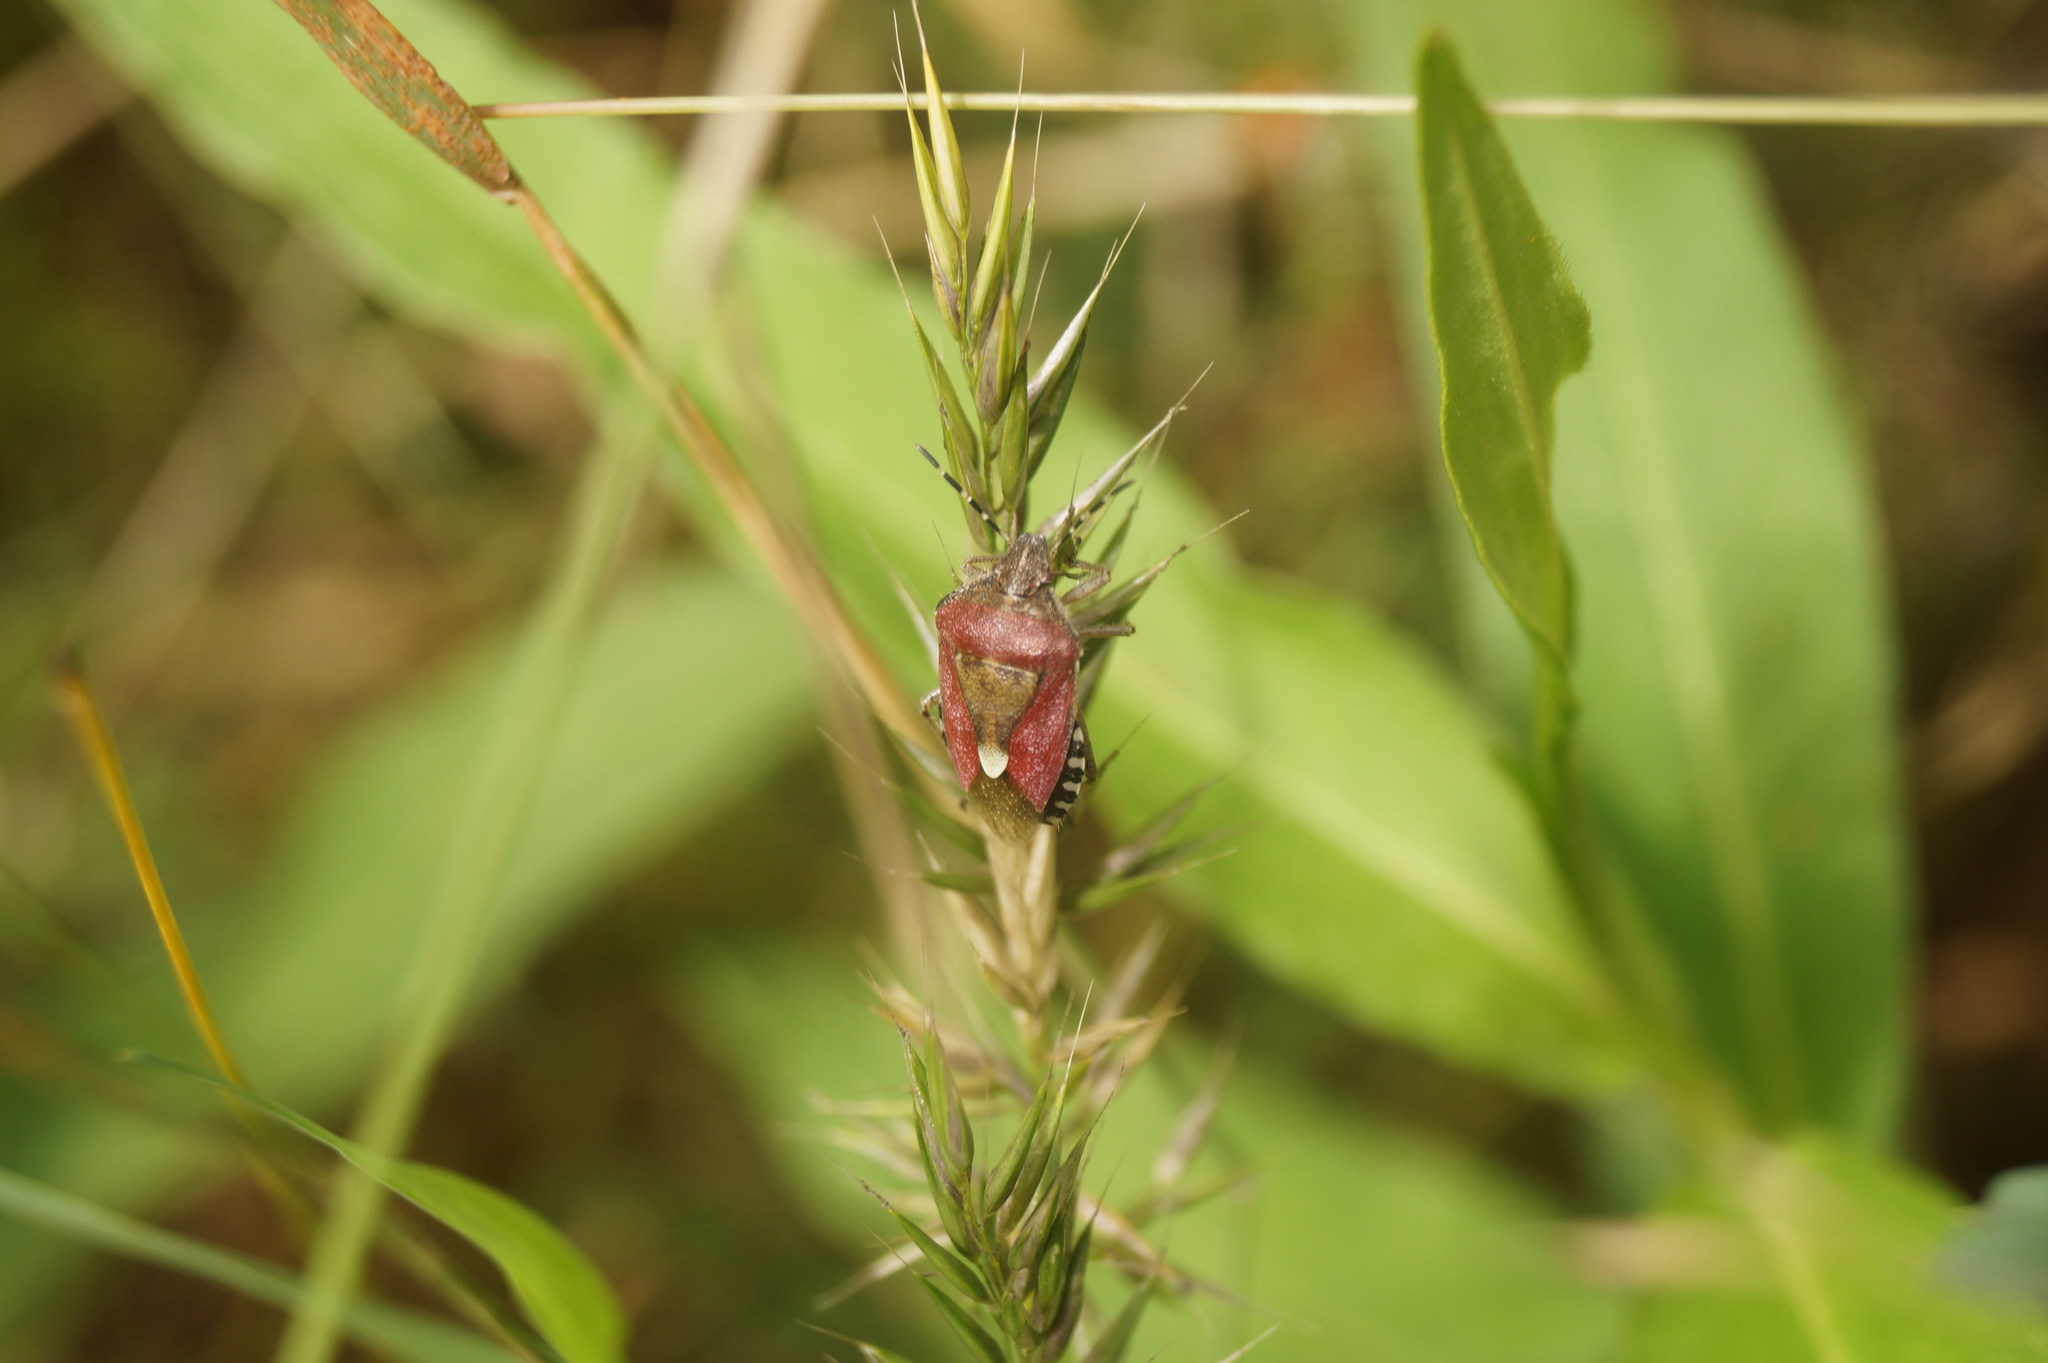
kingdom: Animalia
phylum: Arthropoda
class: Insecta
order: Hemiptera
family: Pentatomidae
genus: Dolycoris
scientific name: Dolycoris baccarum
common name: Sloe bug
